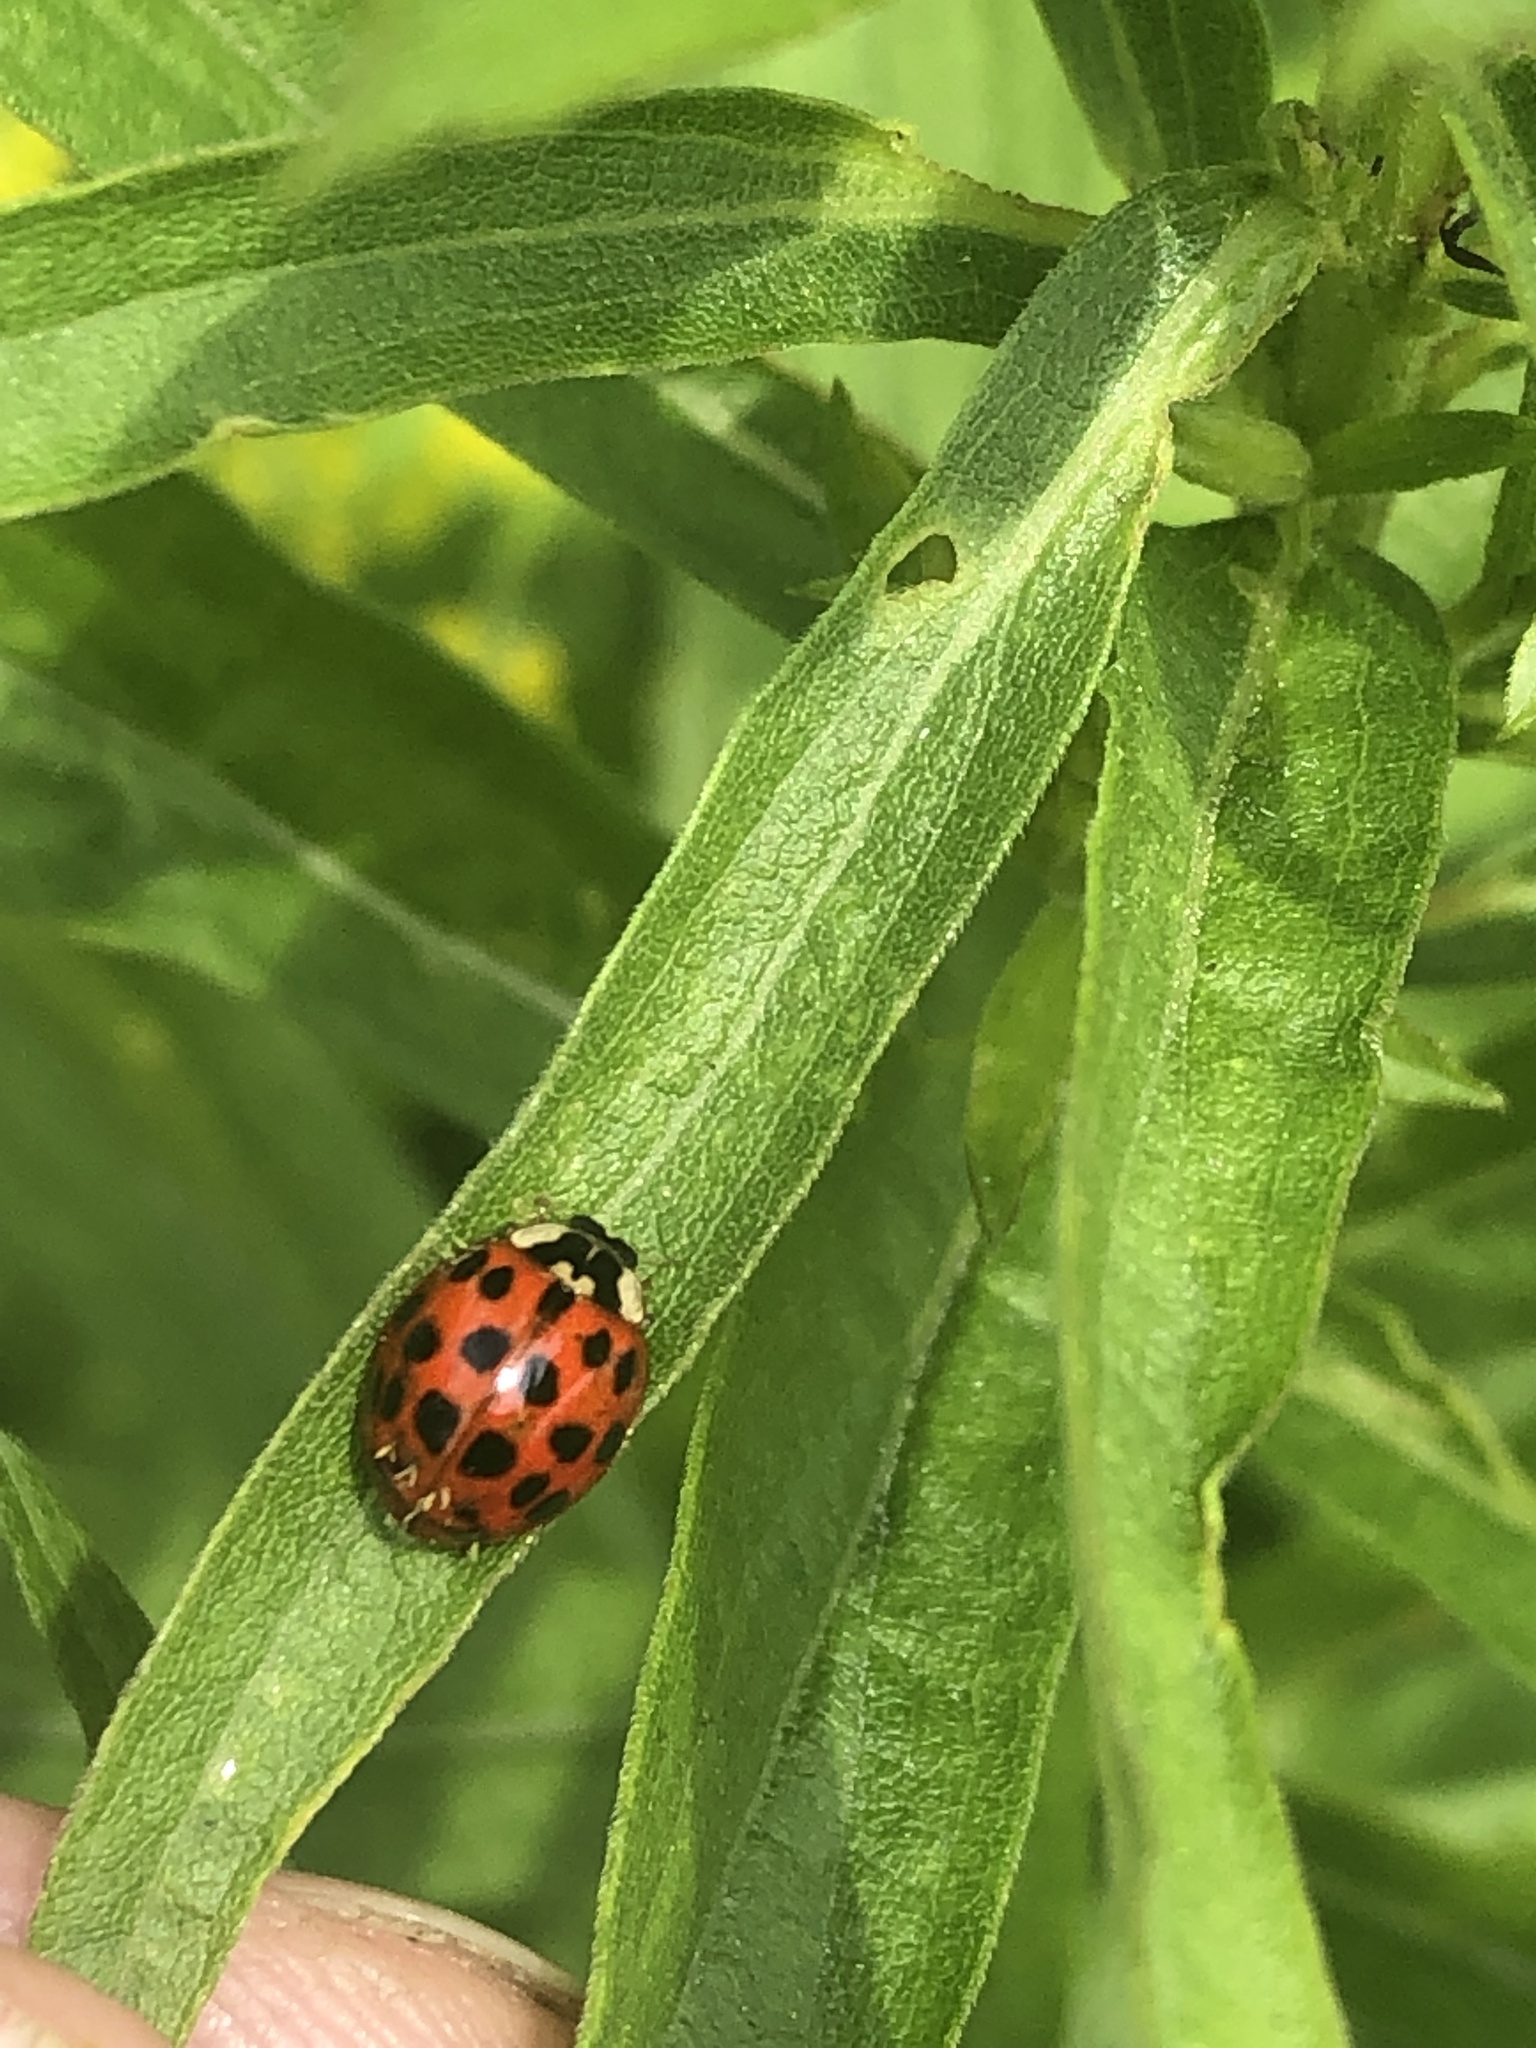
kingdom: Animalia
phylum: Arthropoda
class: Insecta
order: Coleoptera
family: Coccinellidae
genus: Harmonia
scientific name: Harmonia axyridis
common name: Harlequin ladybird
